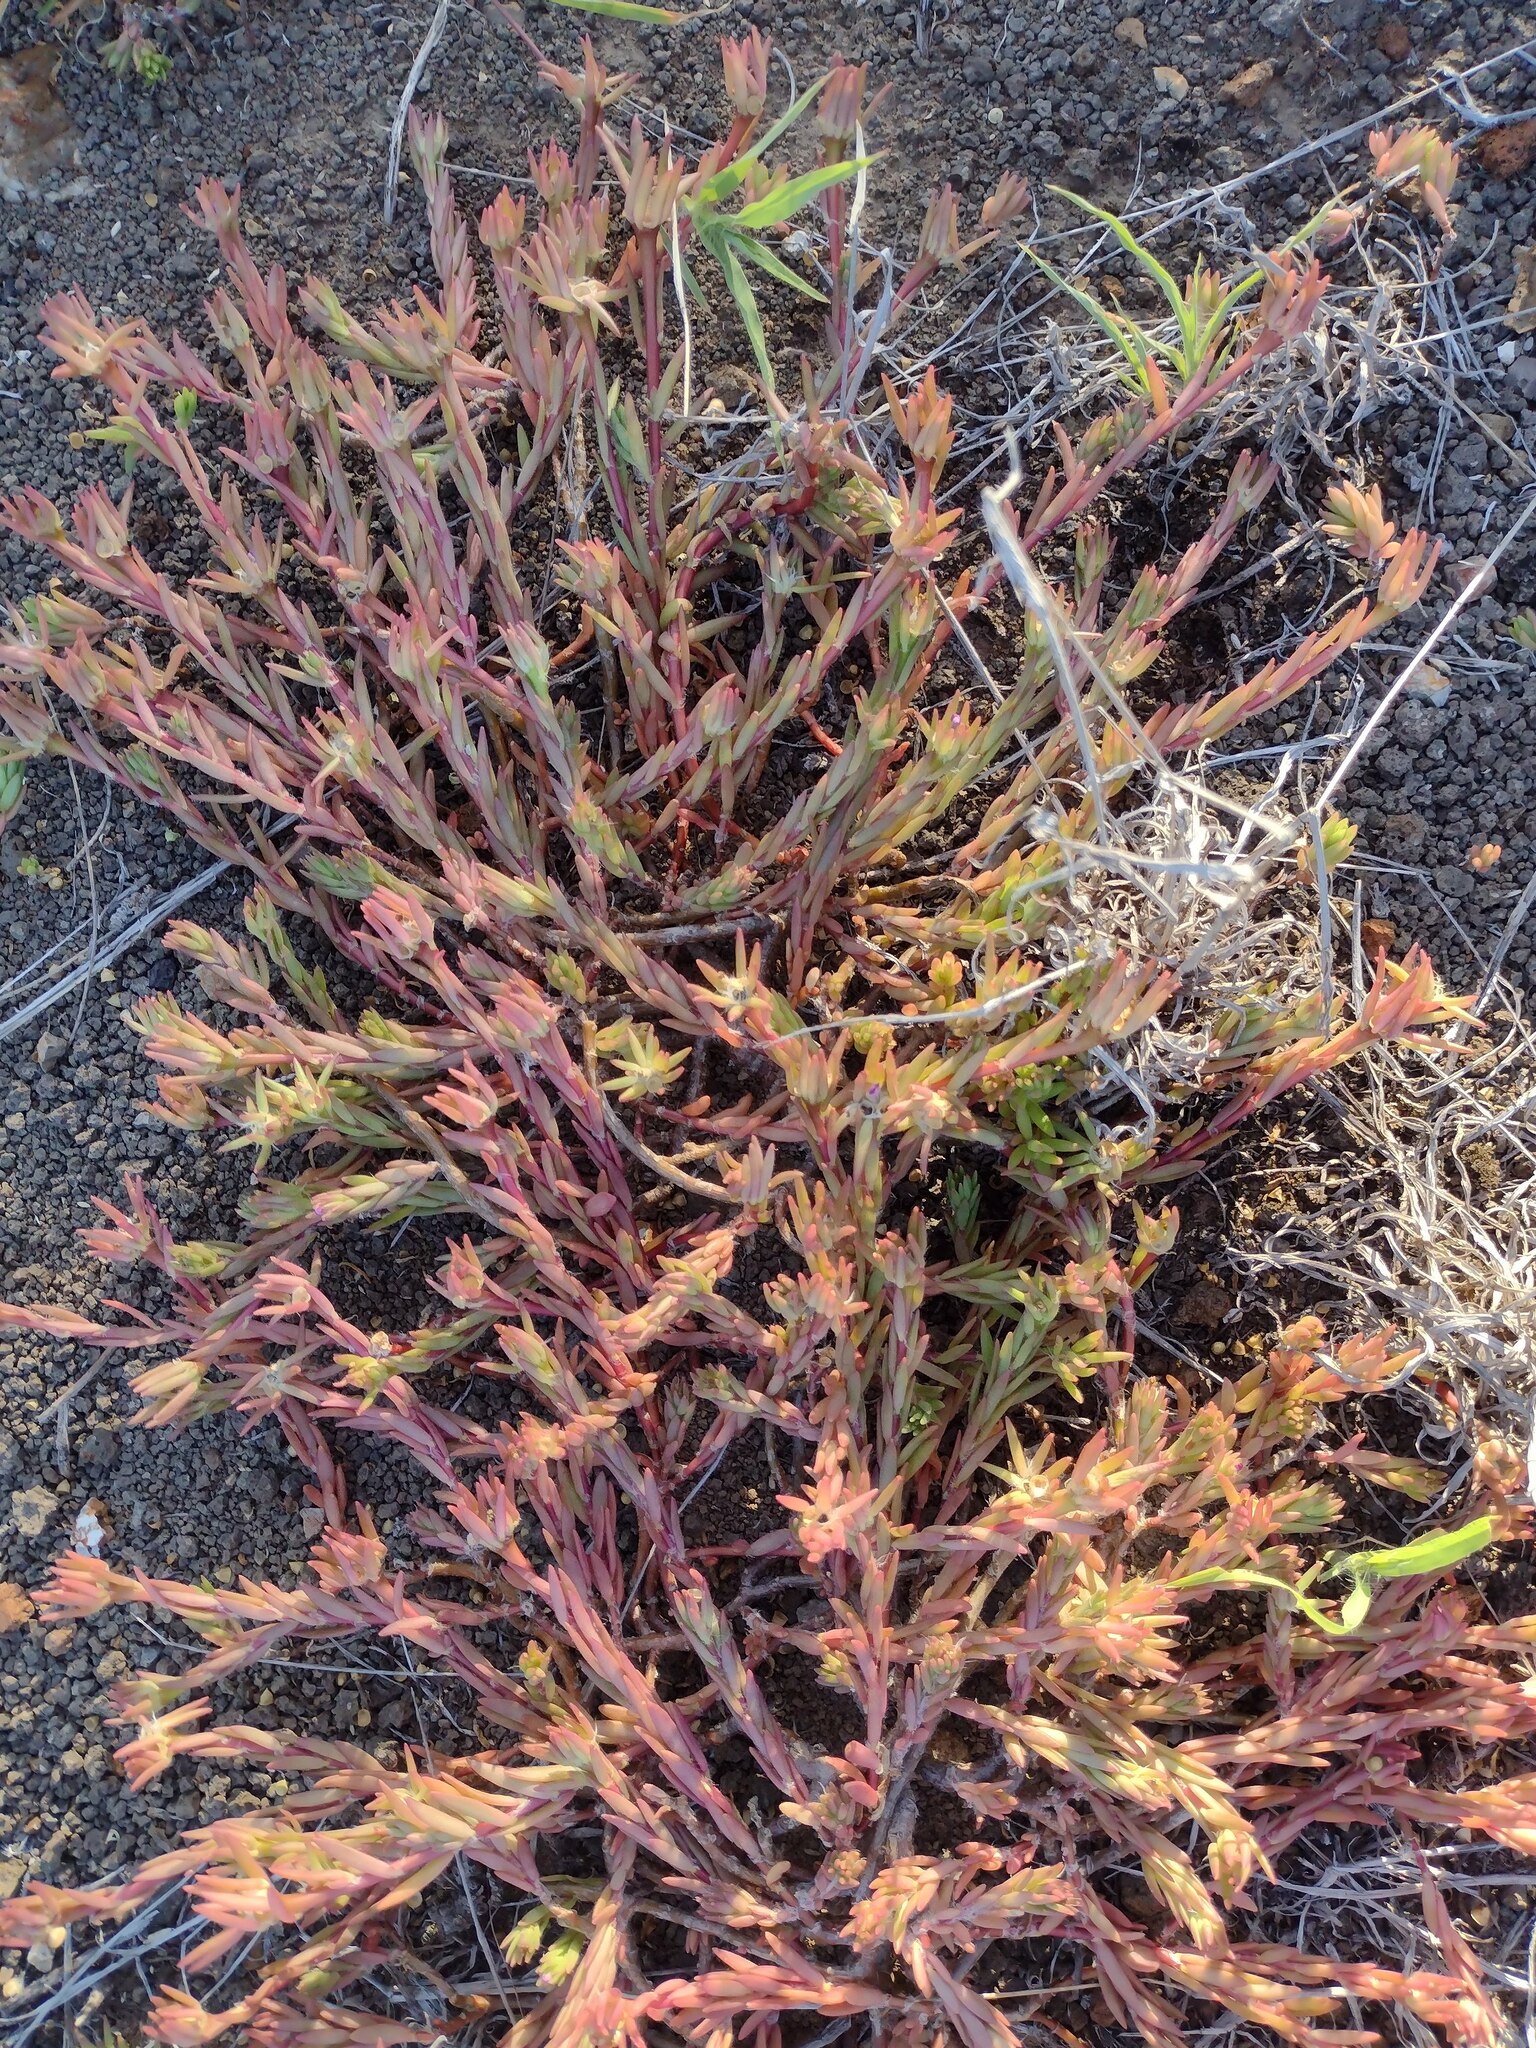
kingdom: Plantae
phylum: Tracheophyta
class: Magnoliopsida
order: Caryophyllales
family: Portulacaceae
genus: Portulaca
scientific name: Portulaca pilosa
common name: Kiss me quick
